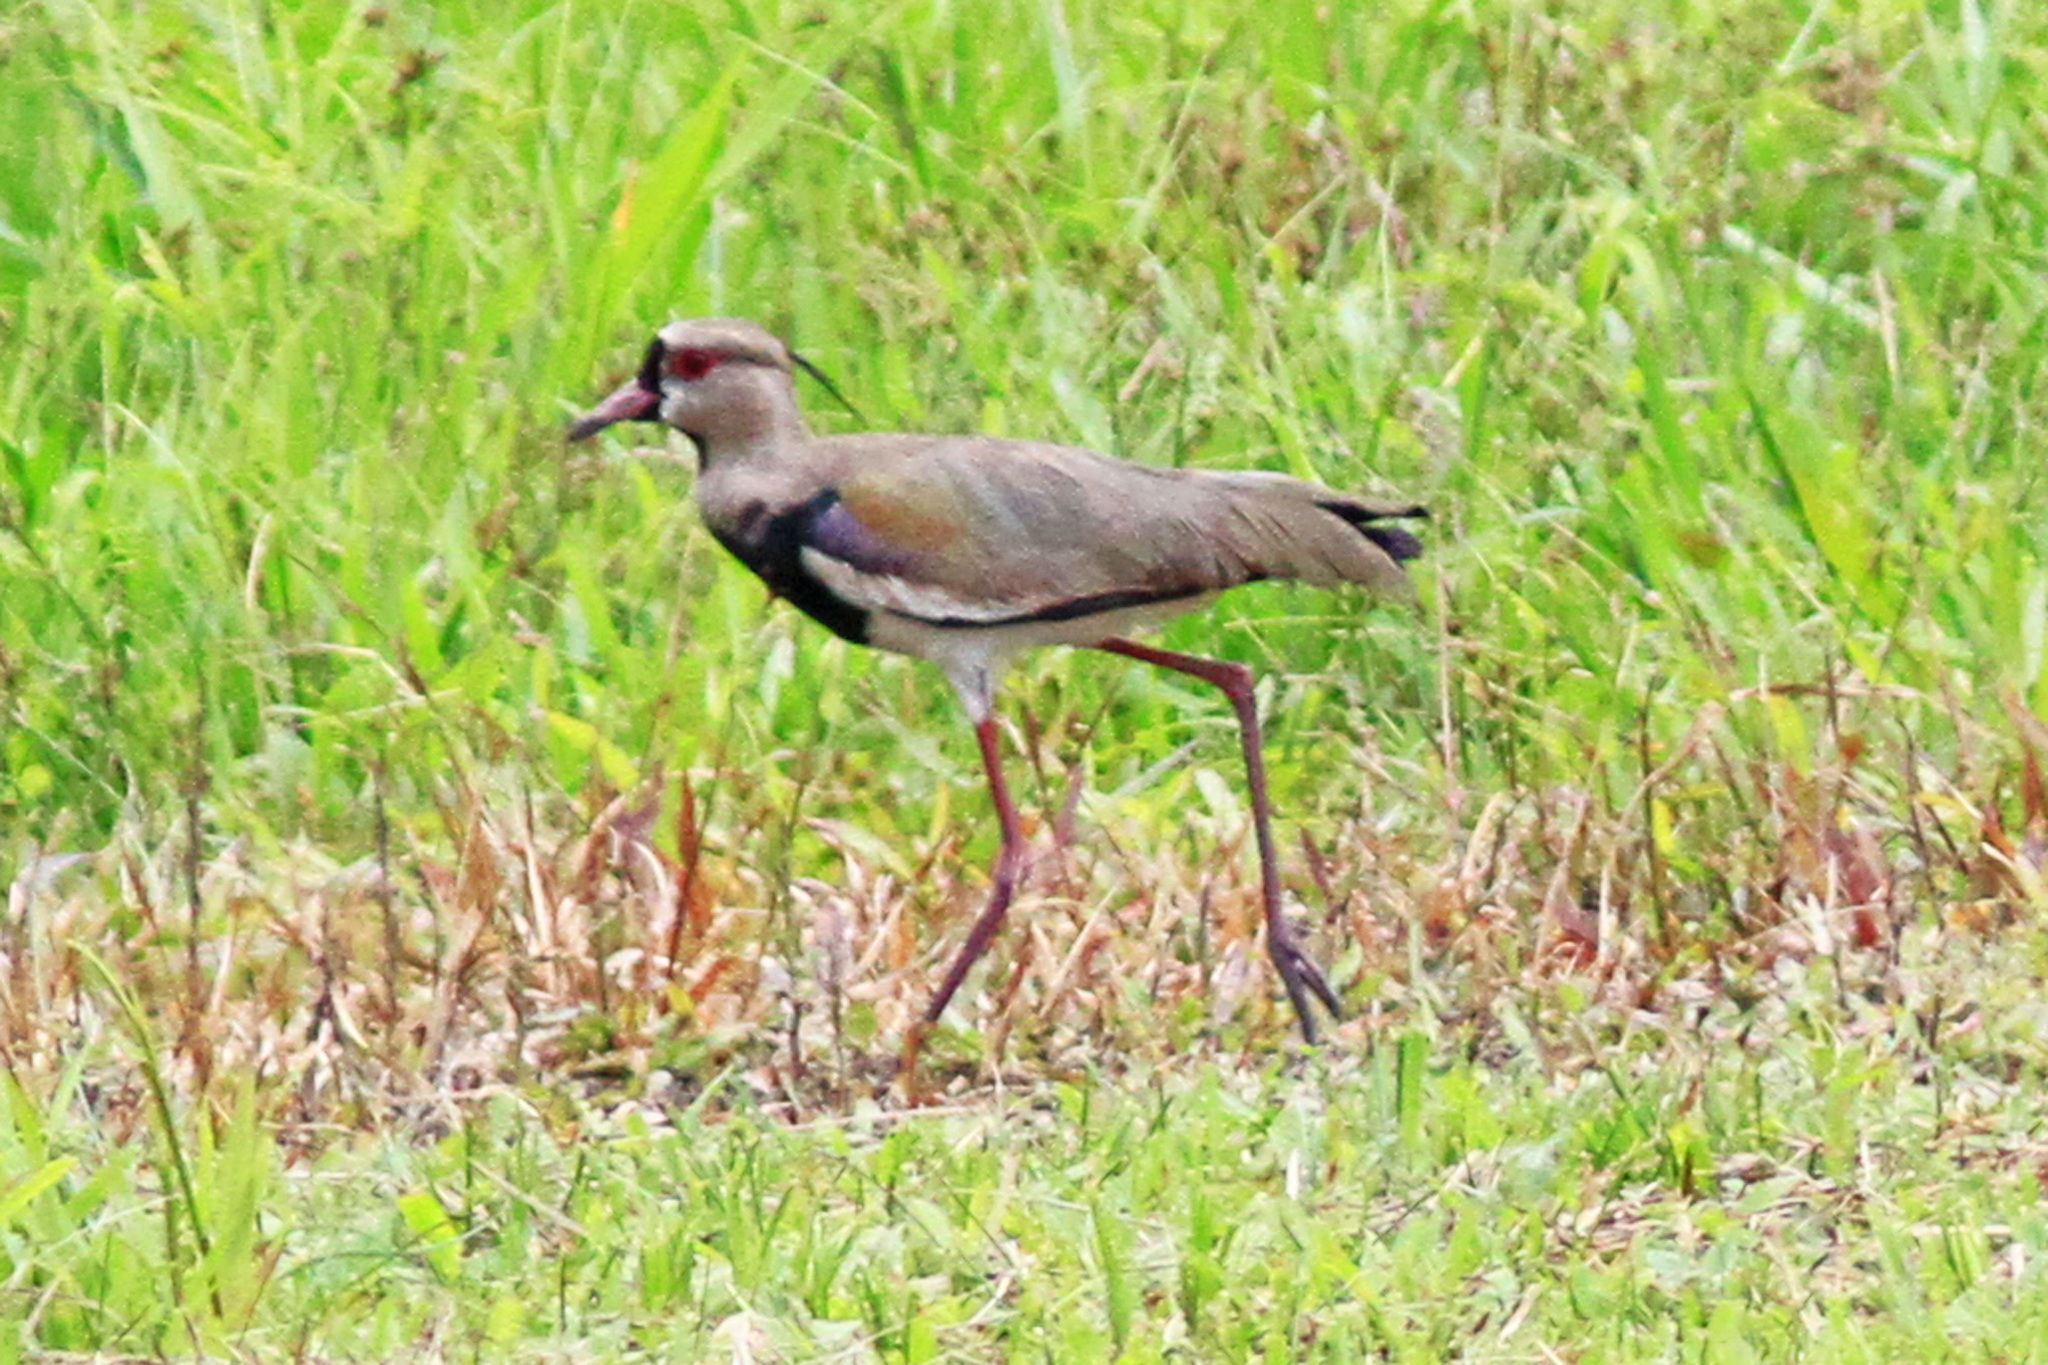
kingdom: Animalia
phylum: Chordata
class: Aves
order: Charadriiformes
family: Charadriidae
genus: Vanellus
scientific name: Vanellus chilensis
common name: Southern lapwing
